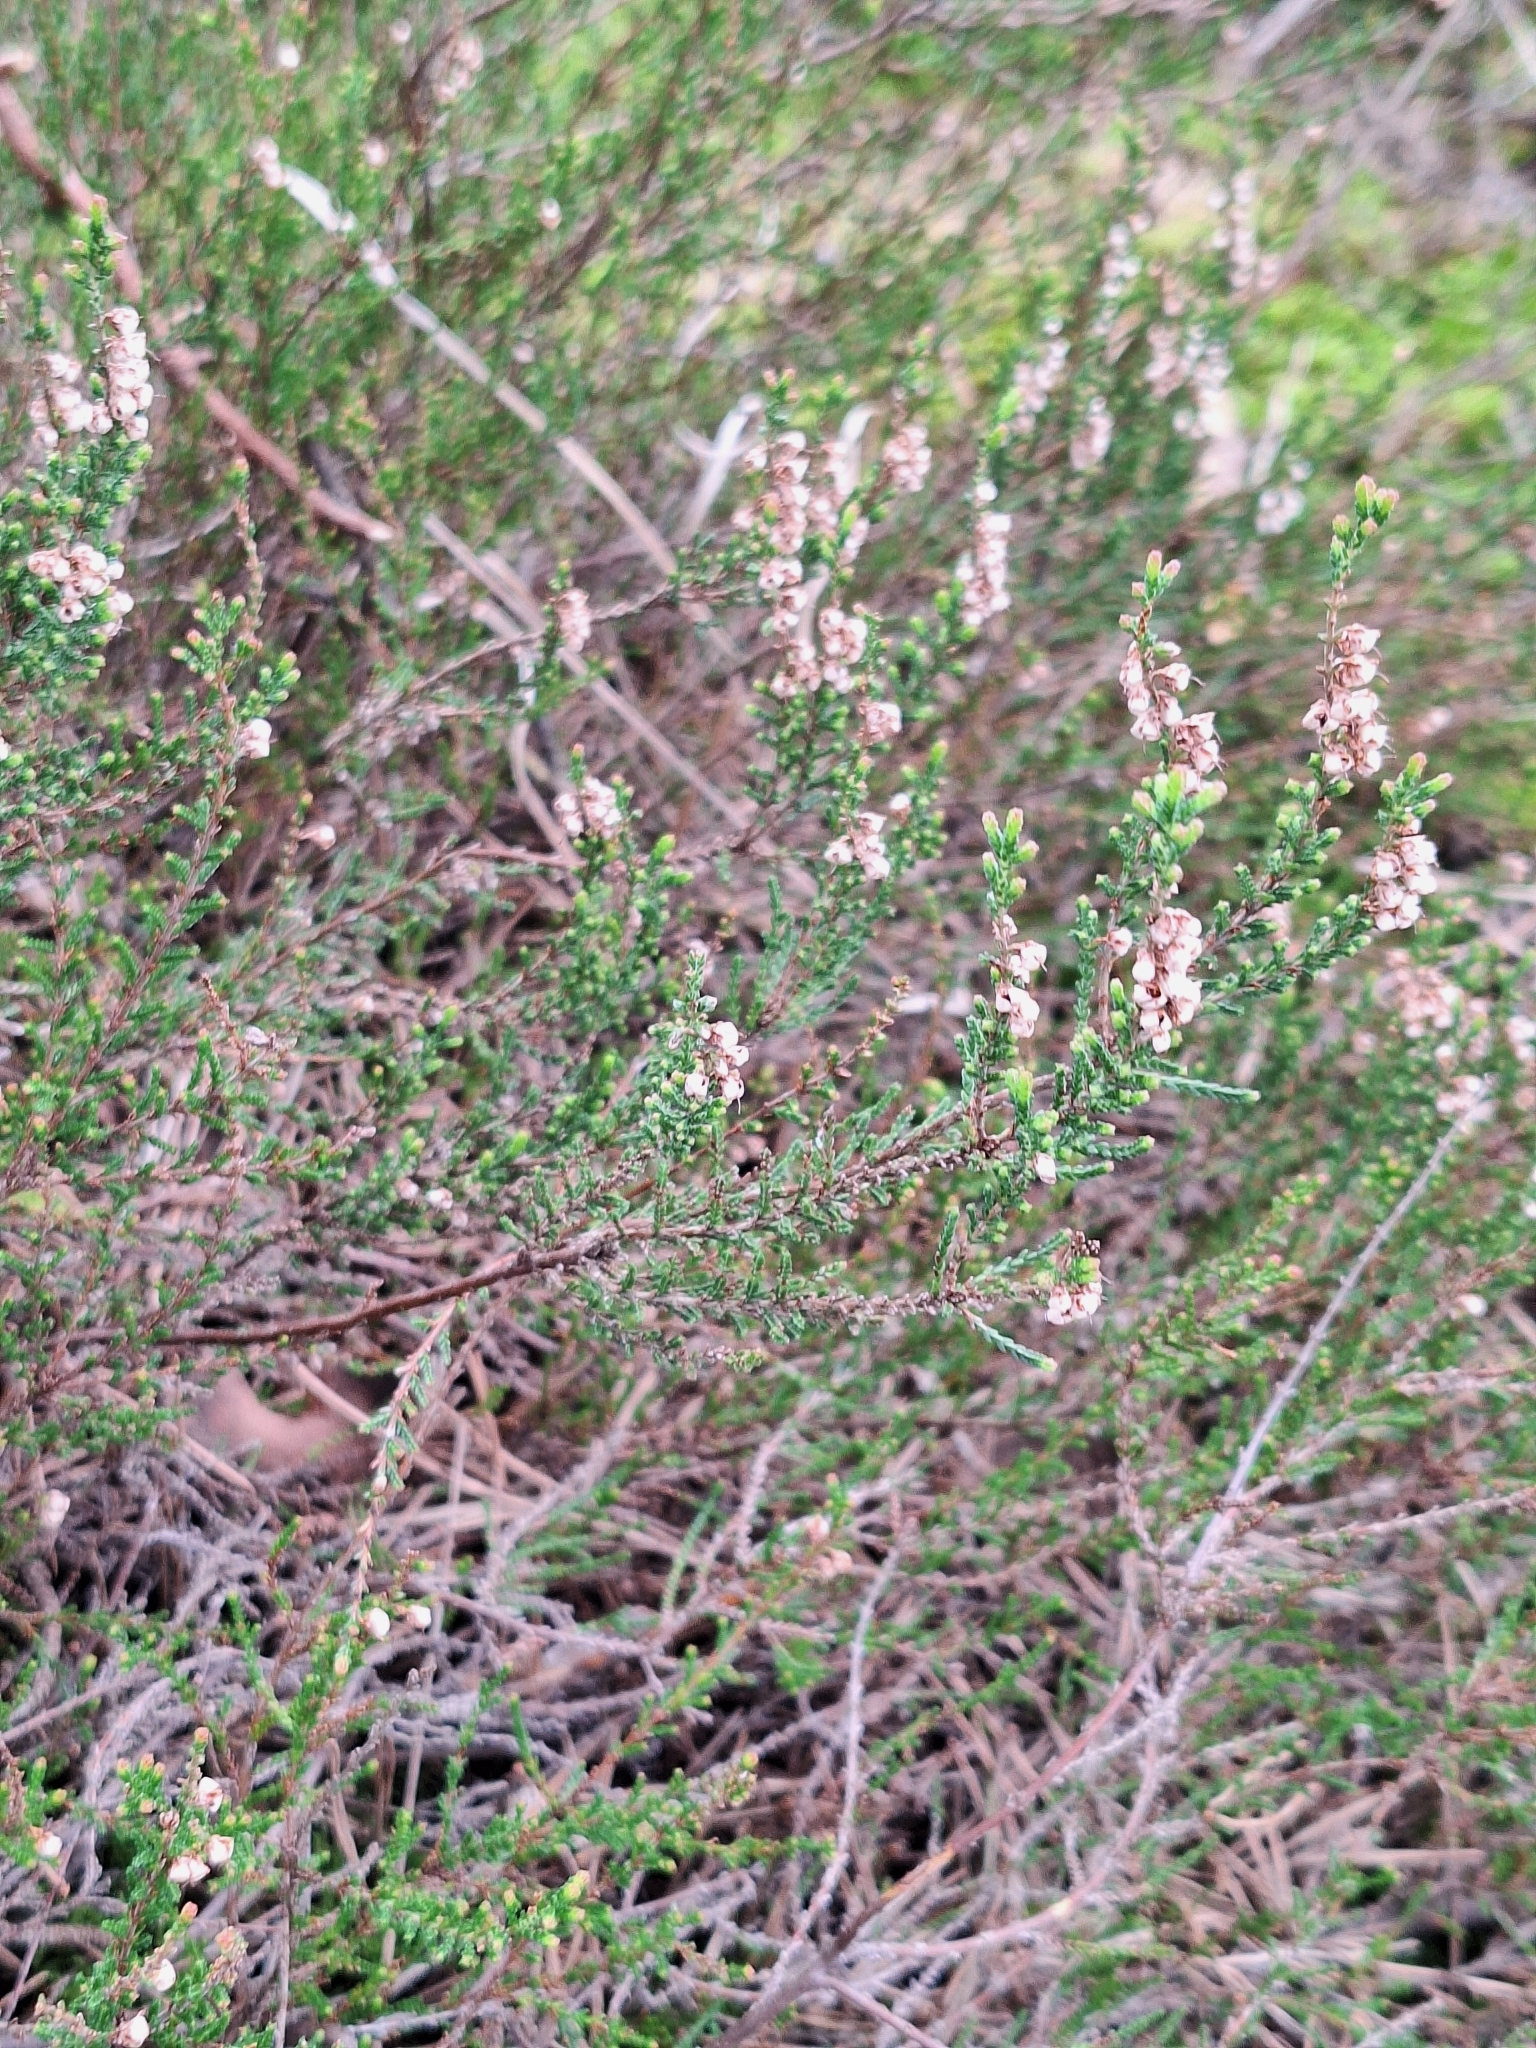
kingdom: Plantae
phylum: Tracheophyta
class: Magnoliopsida
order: Ericales
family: Ericaceae
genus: Calluna
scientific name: Calluna vulgaris
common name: Heather
